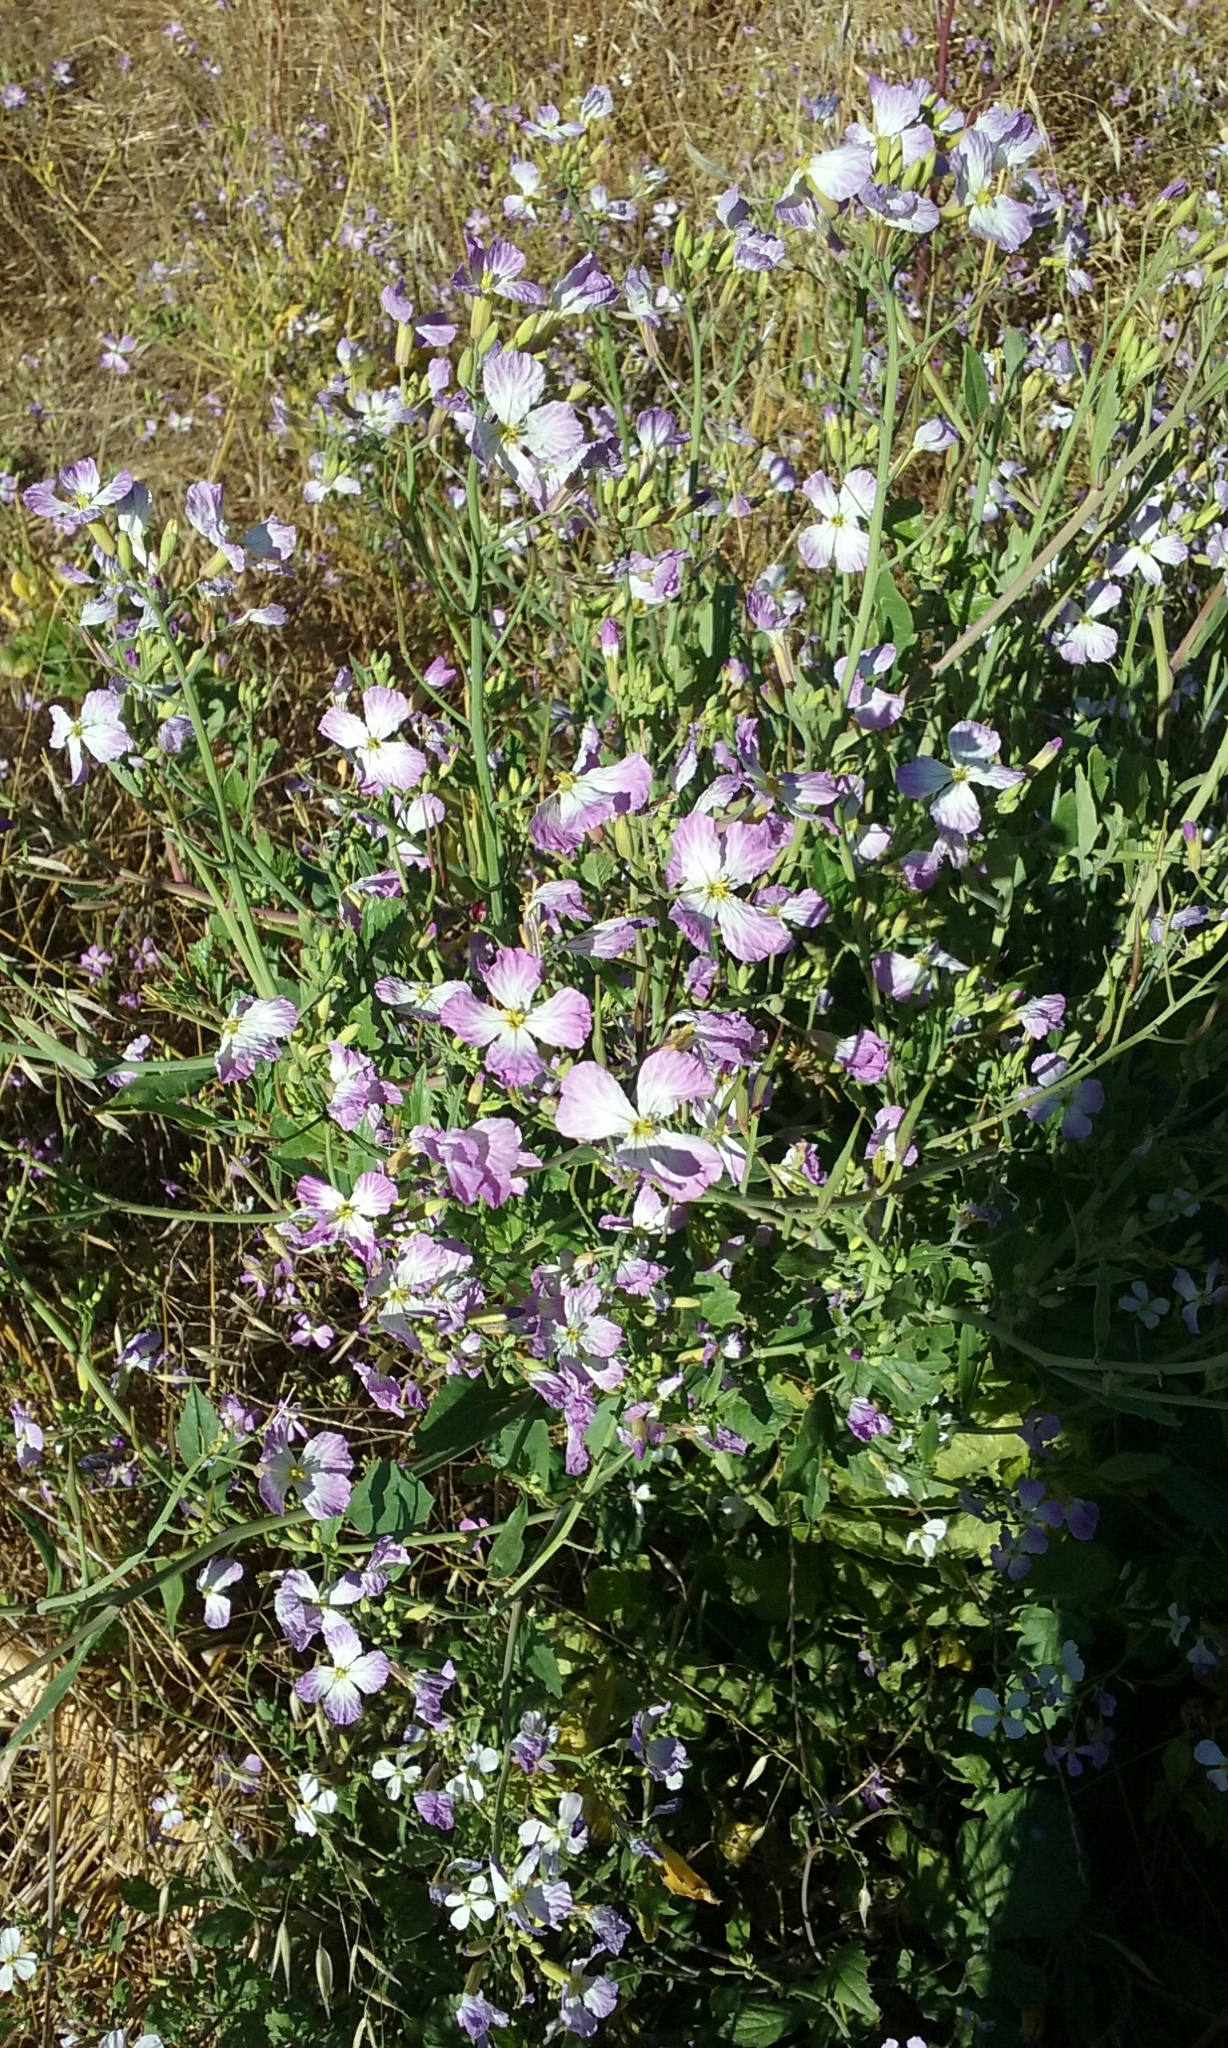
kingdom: Plantae
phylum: Tracheophyta
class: Magnoliopsida
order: Brassicales
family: Brassicaceae
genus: Raphanus
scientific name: Raphanus sativus
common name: Cultivated radish
